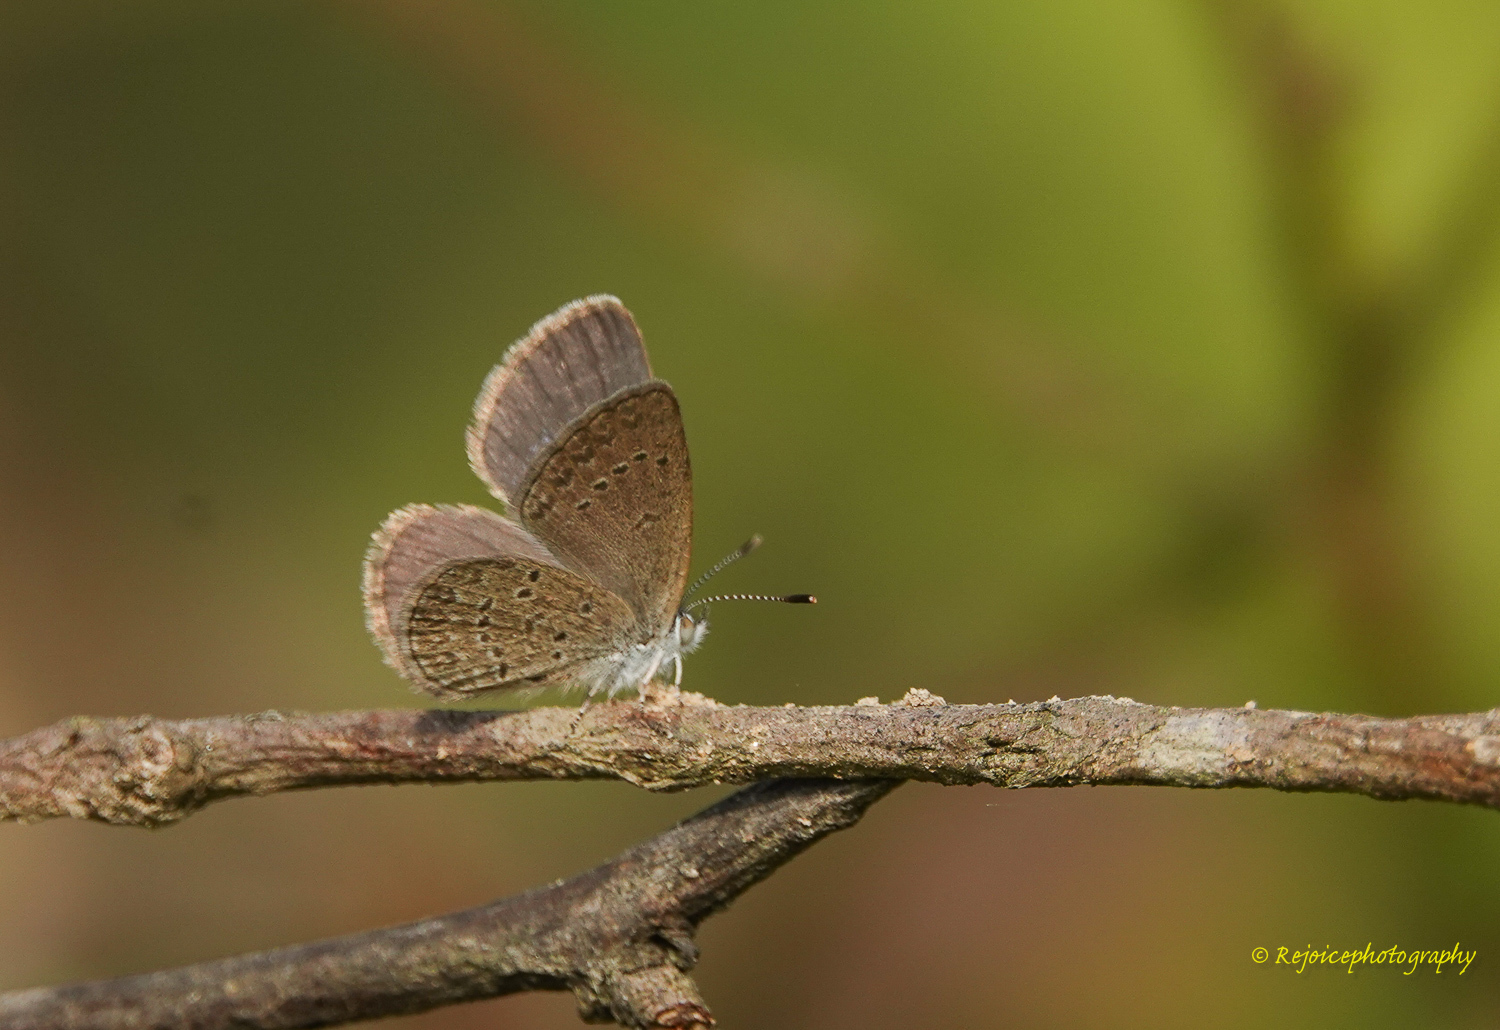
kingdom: Animalia
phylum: Arthropoda
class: Insecta
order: Lepidoptera
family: Lycaenidae
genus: Zizina
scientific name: Zizina otis
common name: Lesser grass blue
